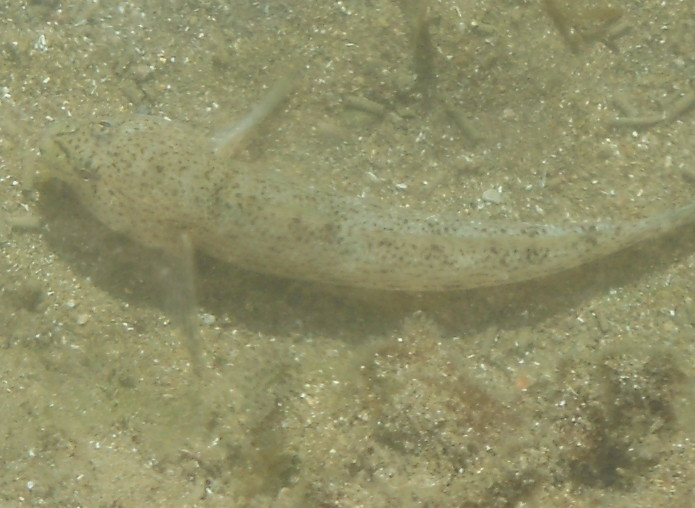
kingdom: Animalia
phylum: Chordata
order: Perciformes
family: Gobiidae
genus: Gobius
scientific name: Gobius incognitus
